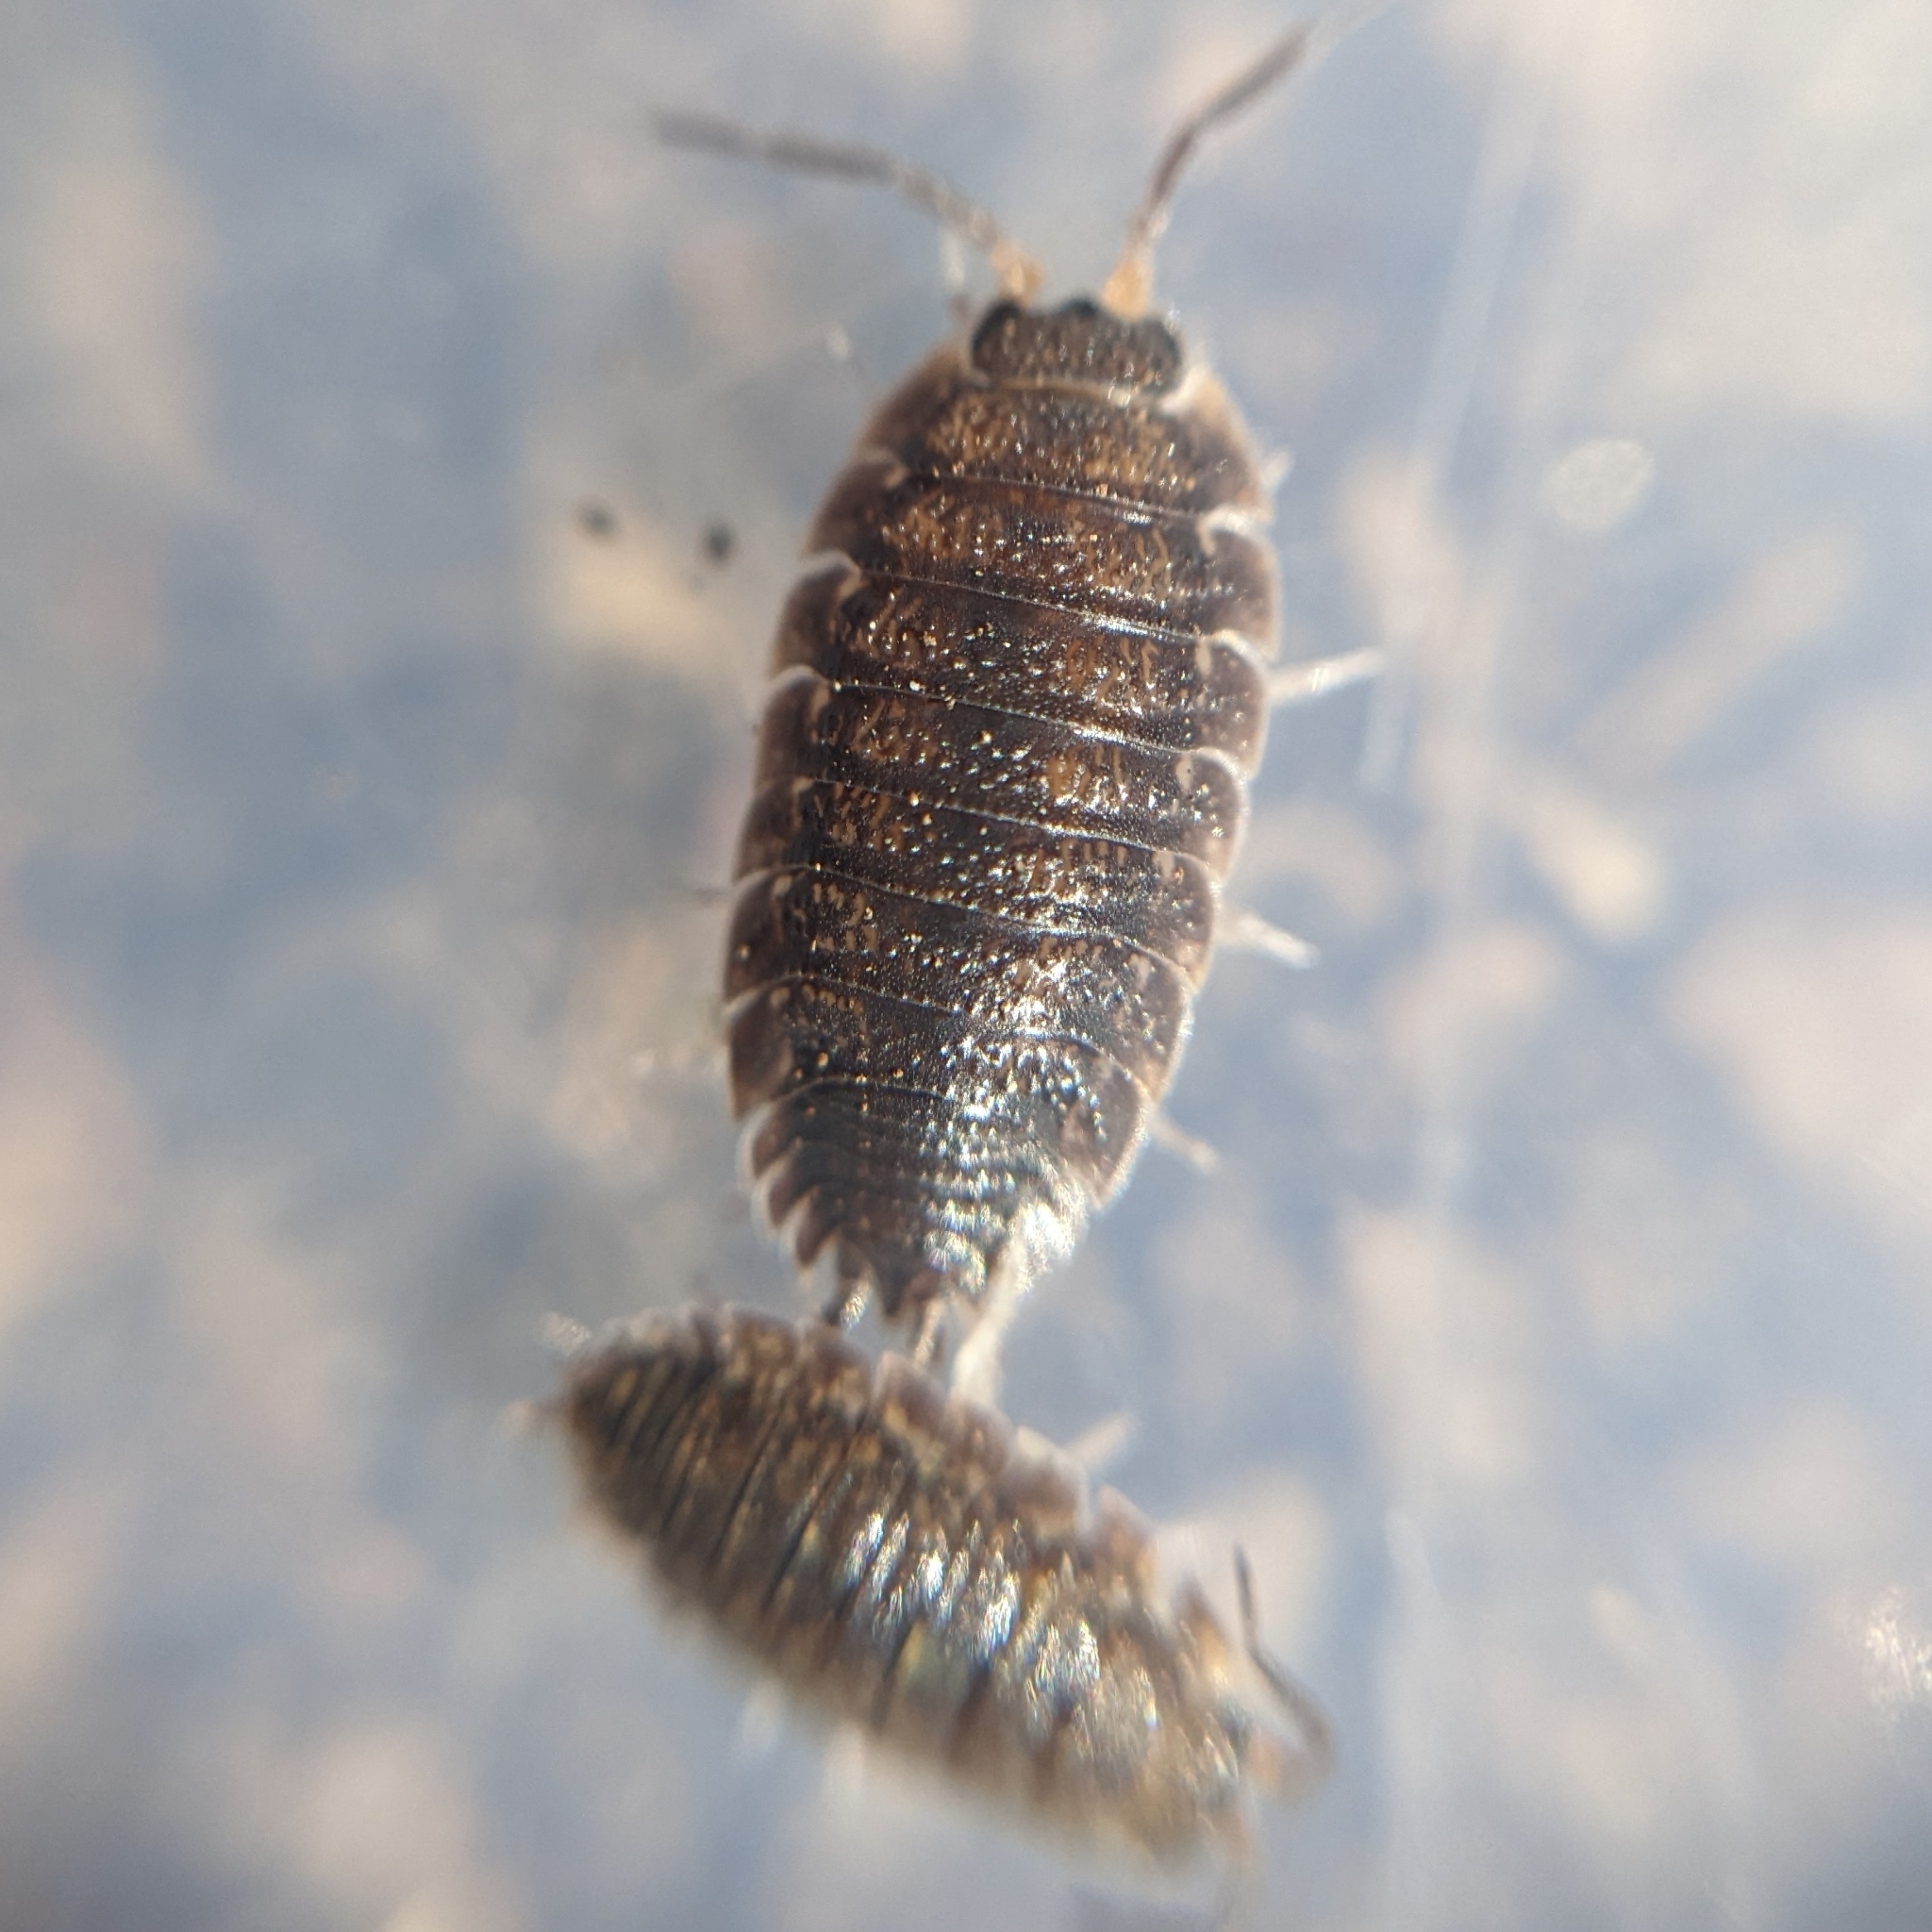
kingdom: Animalia
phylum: Arthropoda
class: Malacostraca
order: Isopoda
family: Porcellionidae
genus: Porcellio
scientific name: Porcellio scaber
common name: Common rough woodlouse
